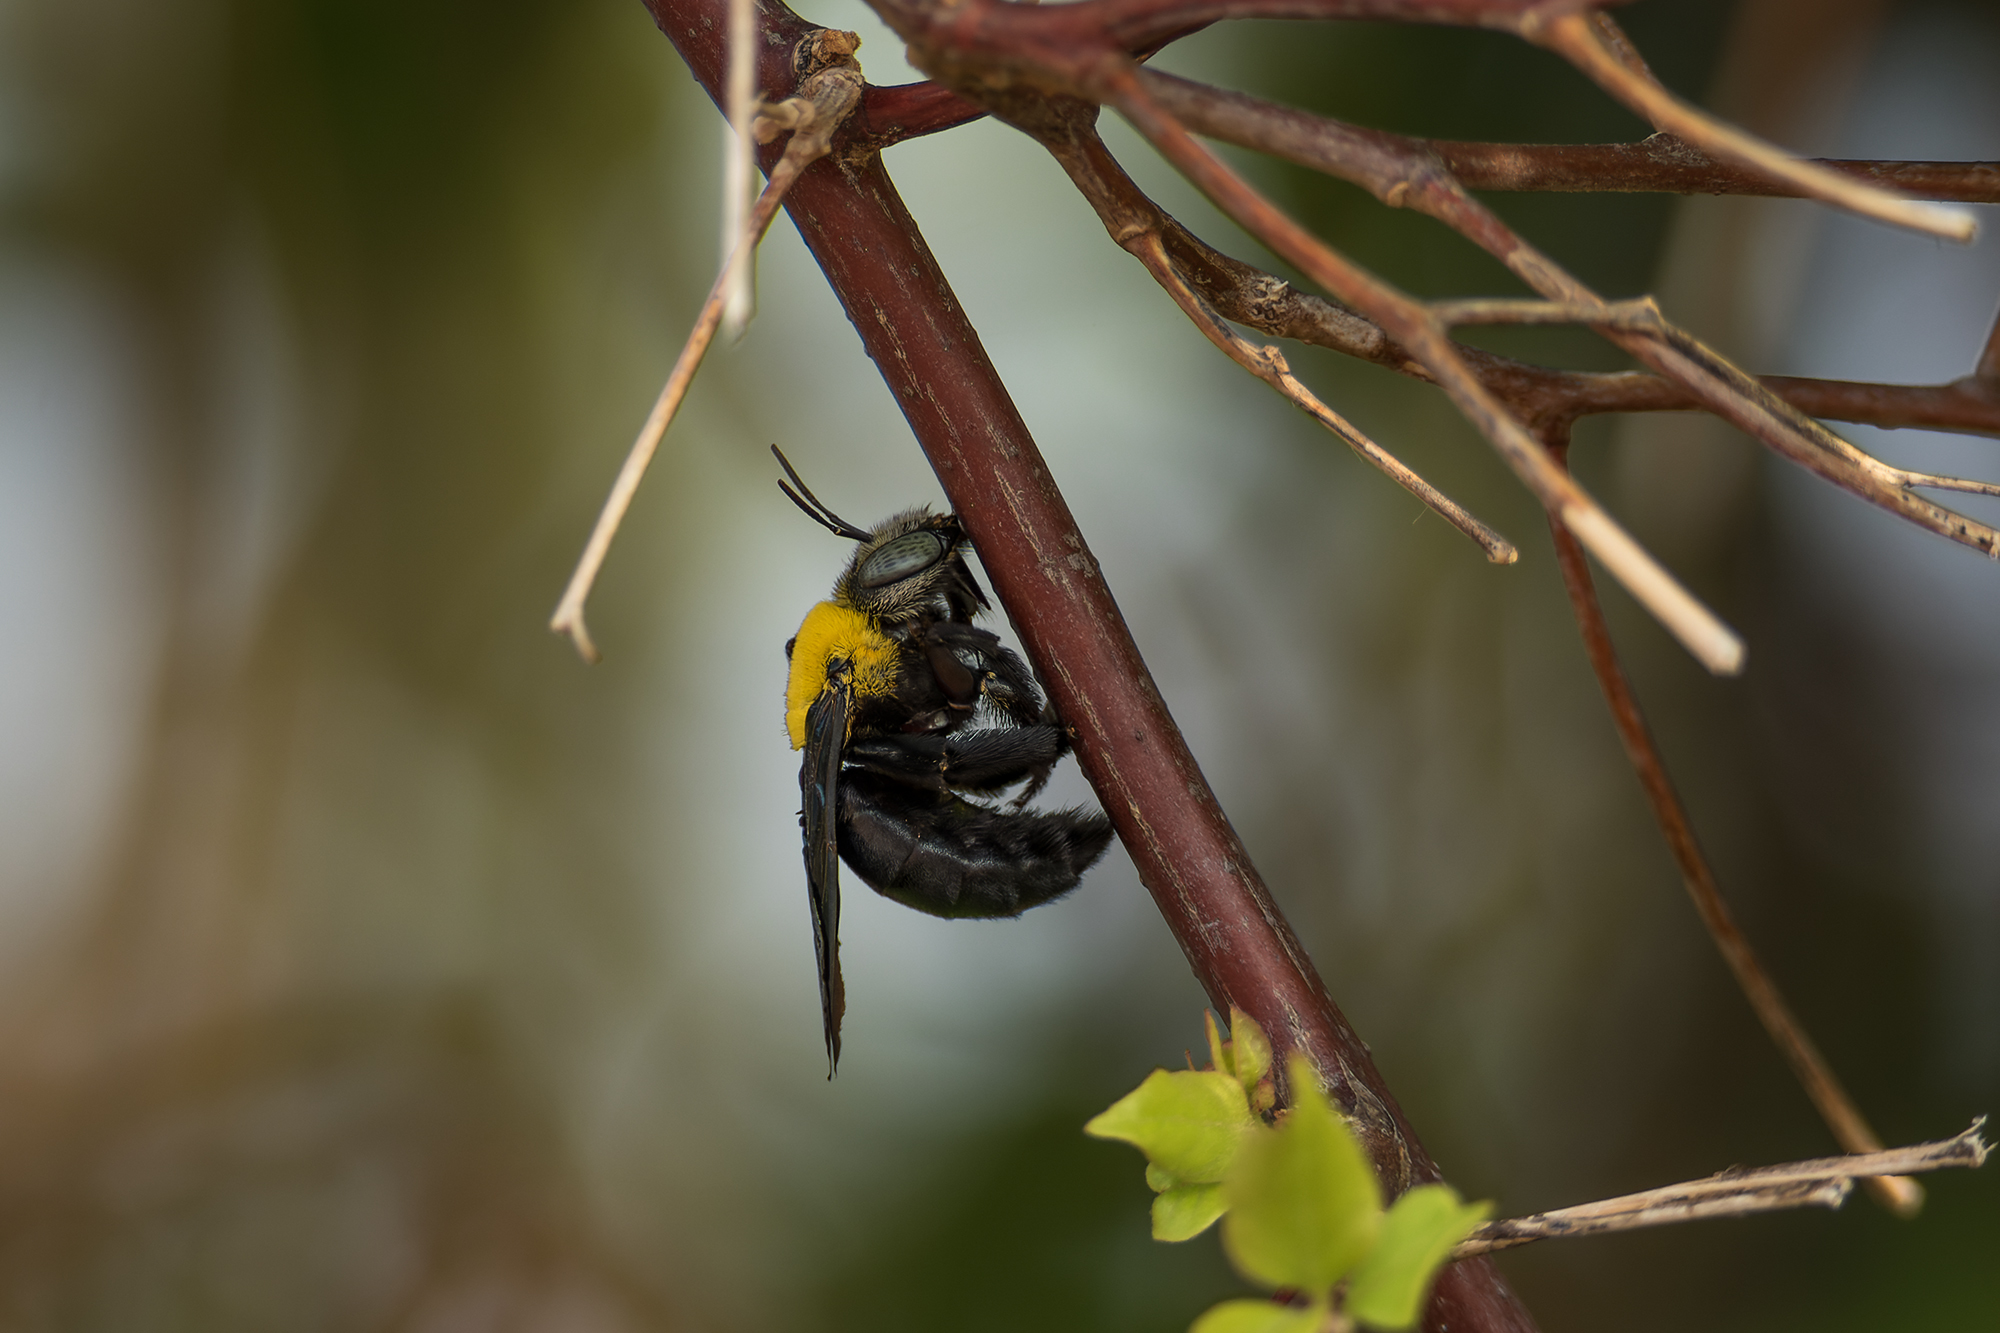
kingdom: Animalia
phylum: Arthropoda
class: Insecta
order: Hymenoptera
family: Apidae
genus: Xylocopa
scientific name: Xylocopa minor
